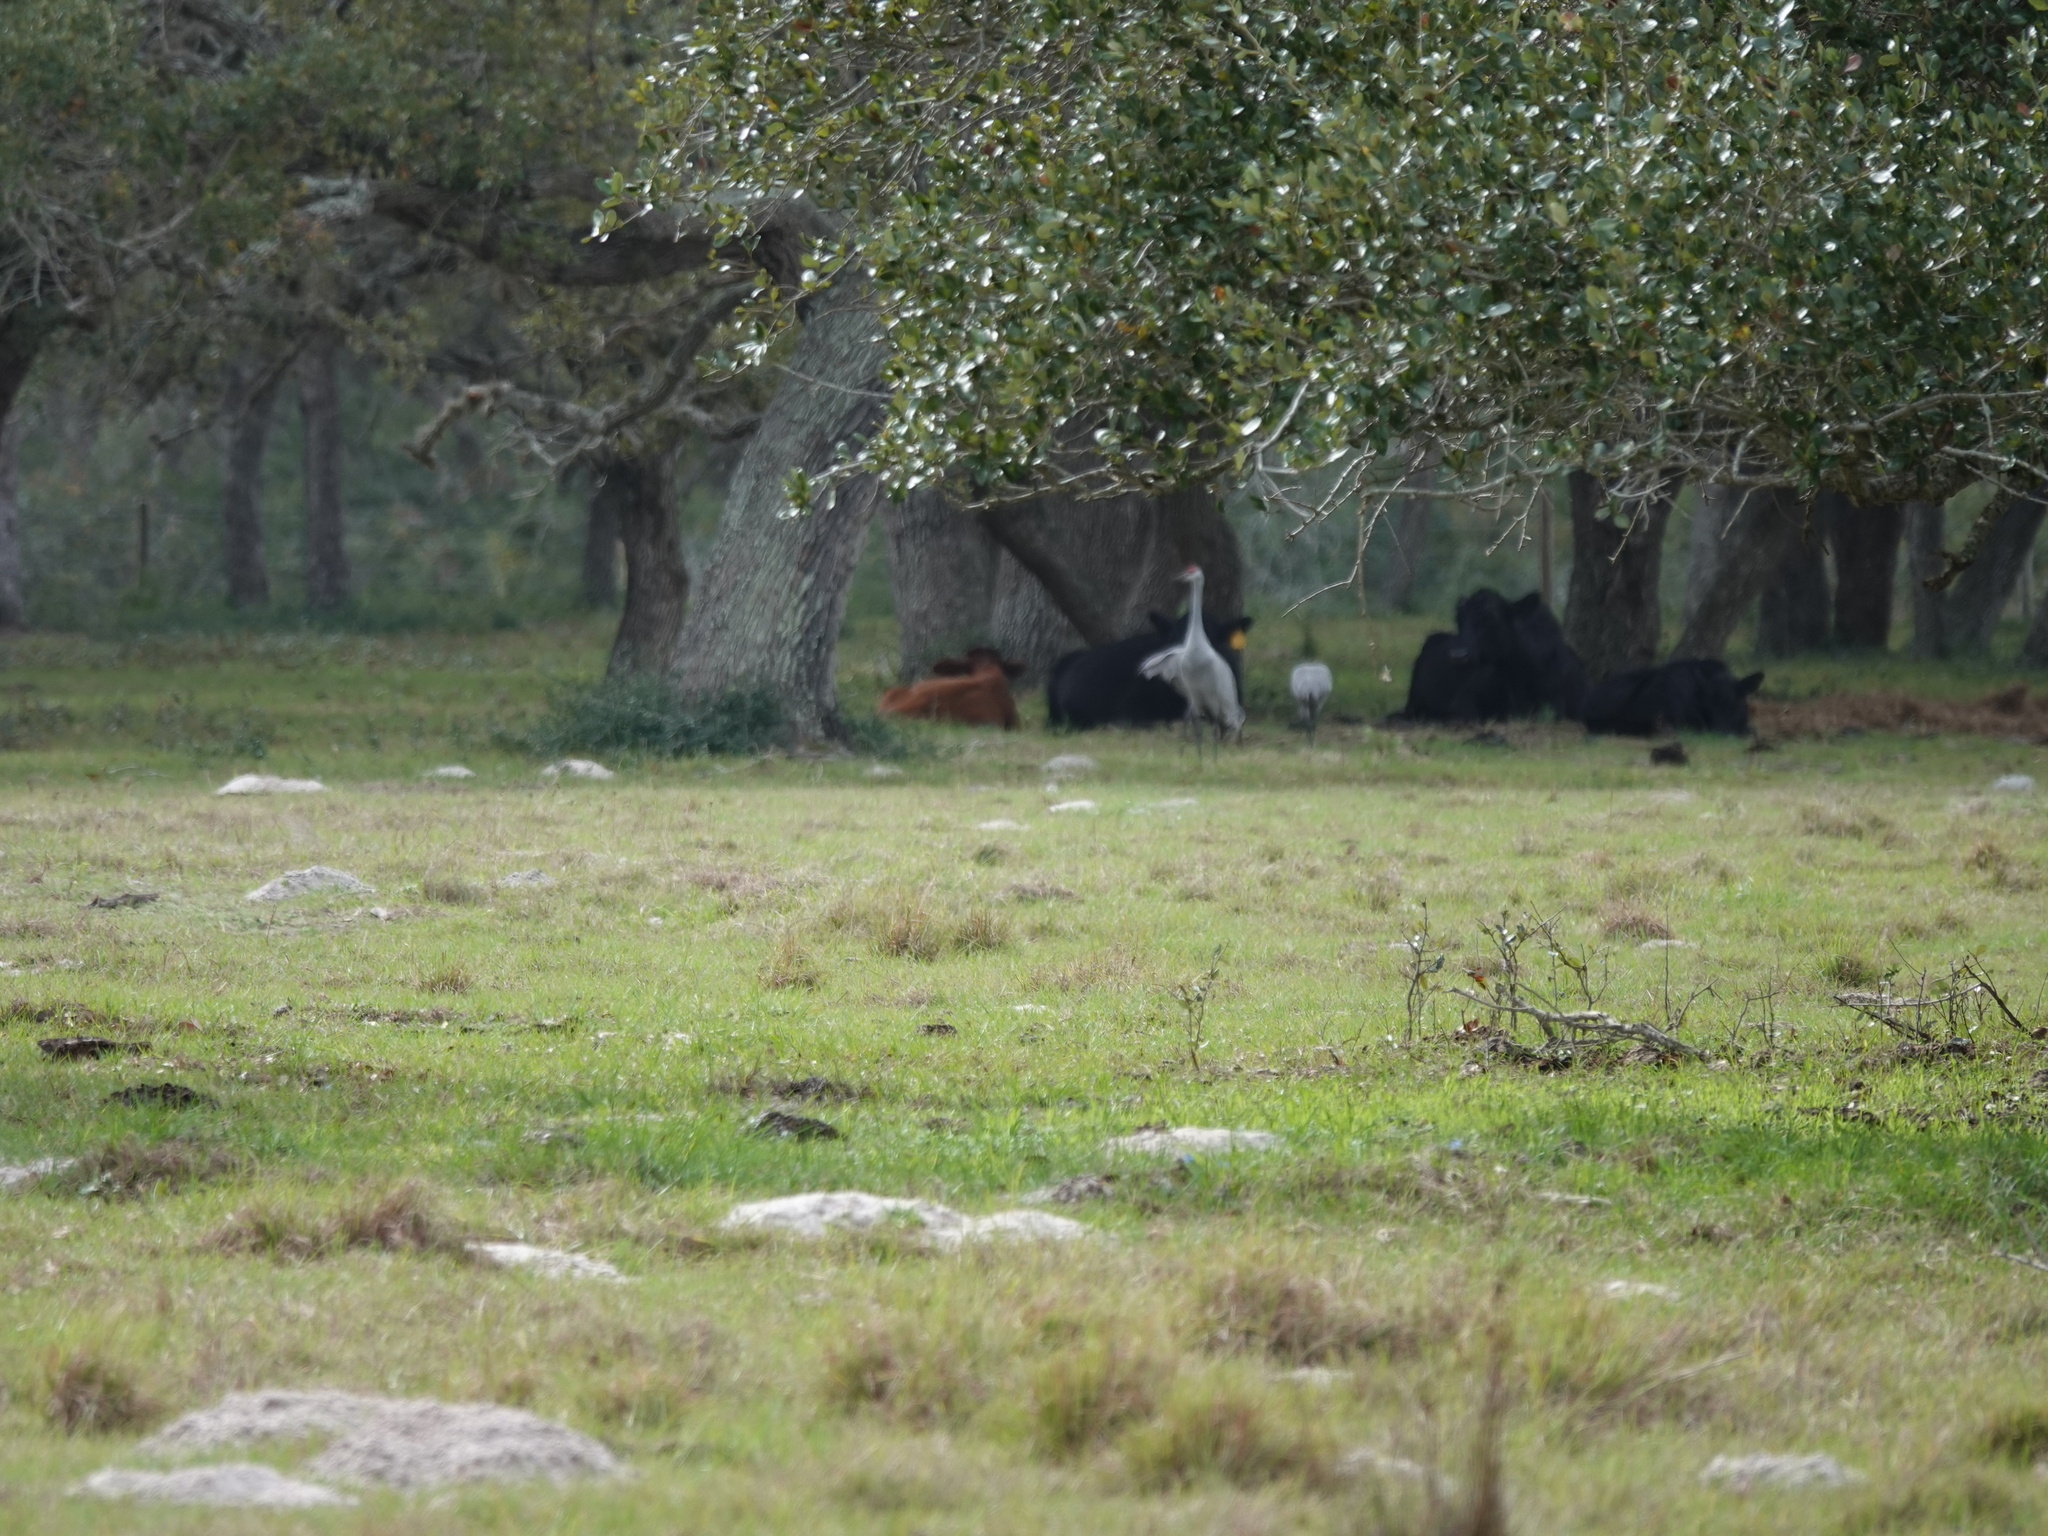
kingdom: Animalia
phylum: Chordata
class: Aves
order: Gruiformes
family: Gruidae
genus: Grus
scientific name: Grus canadensis
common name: Sandhill crane
